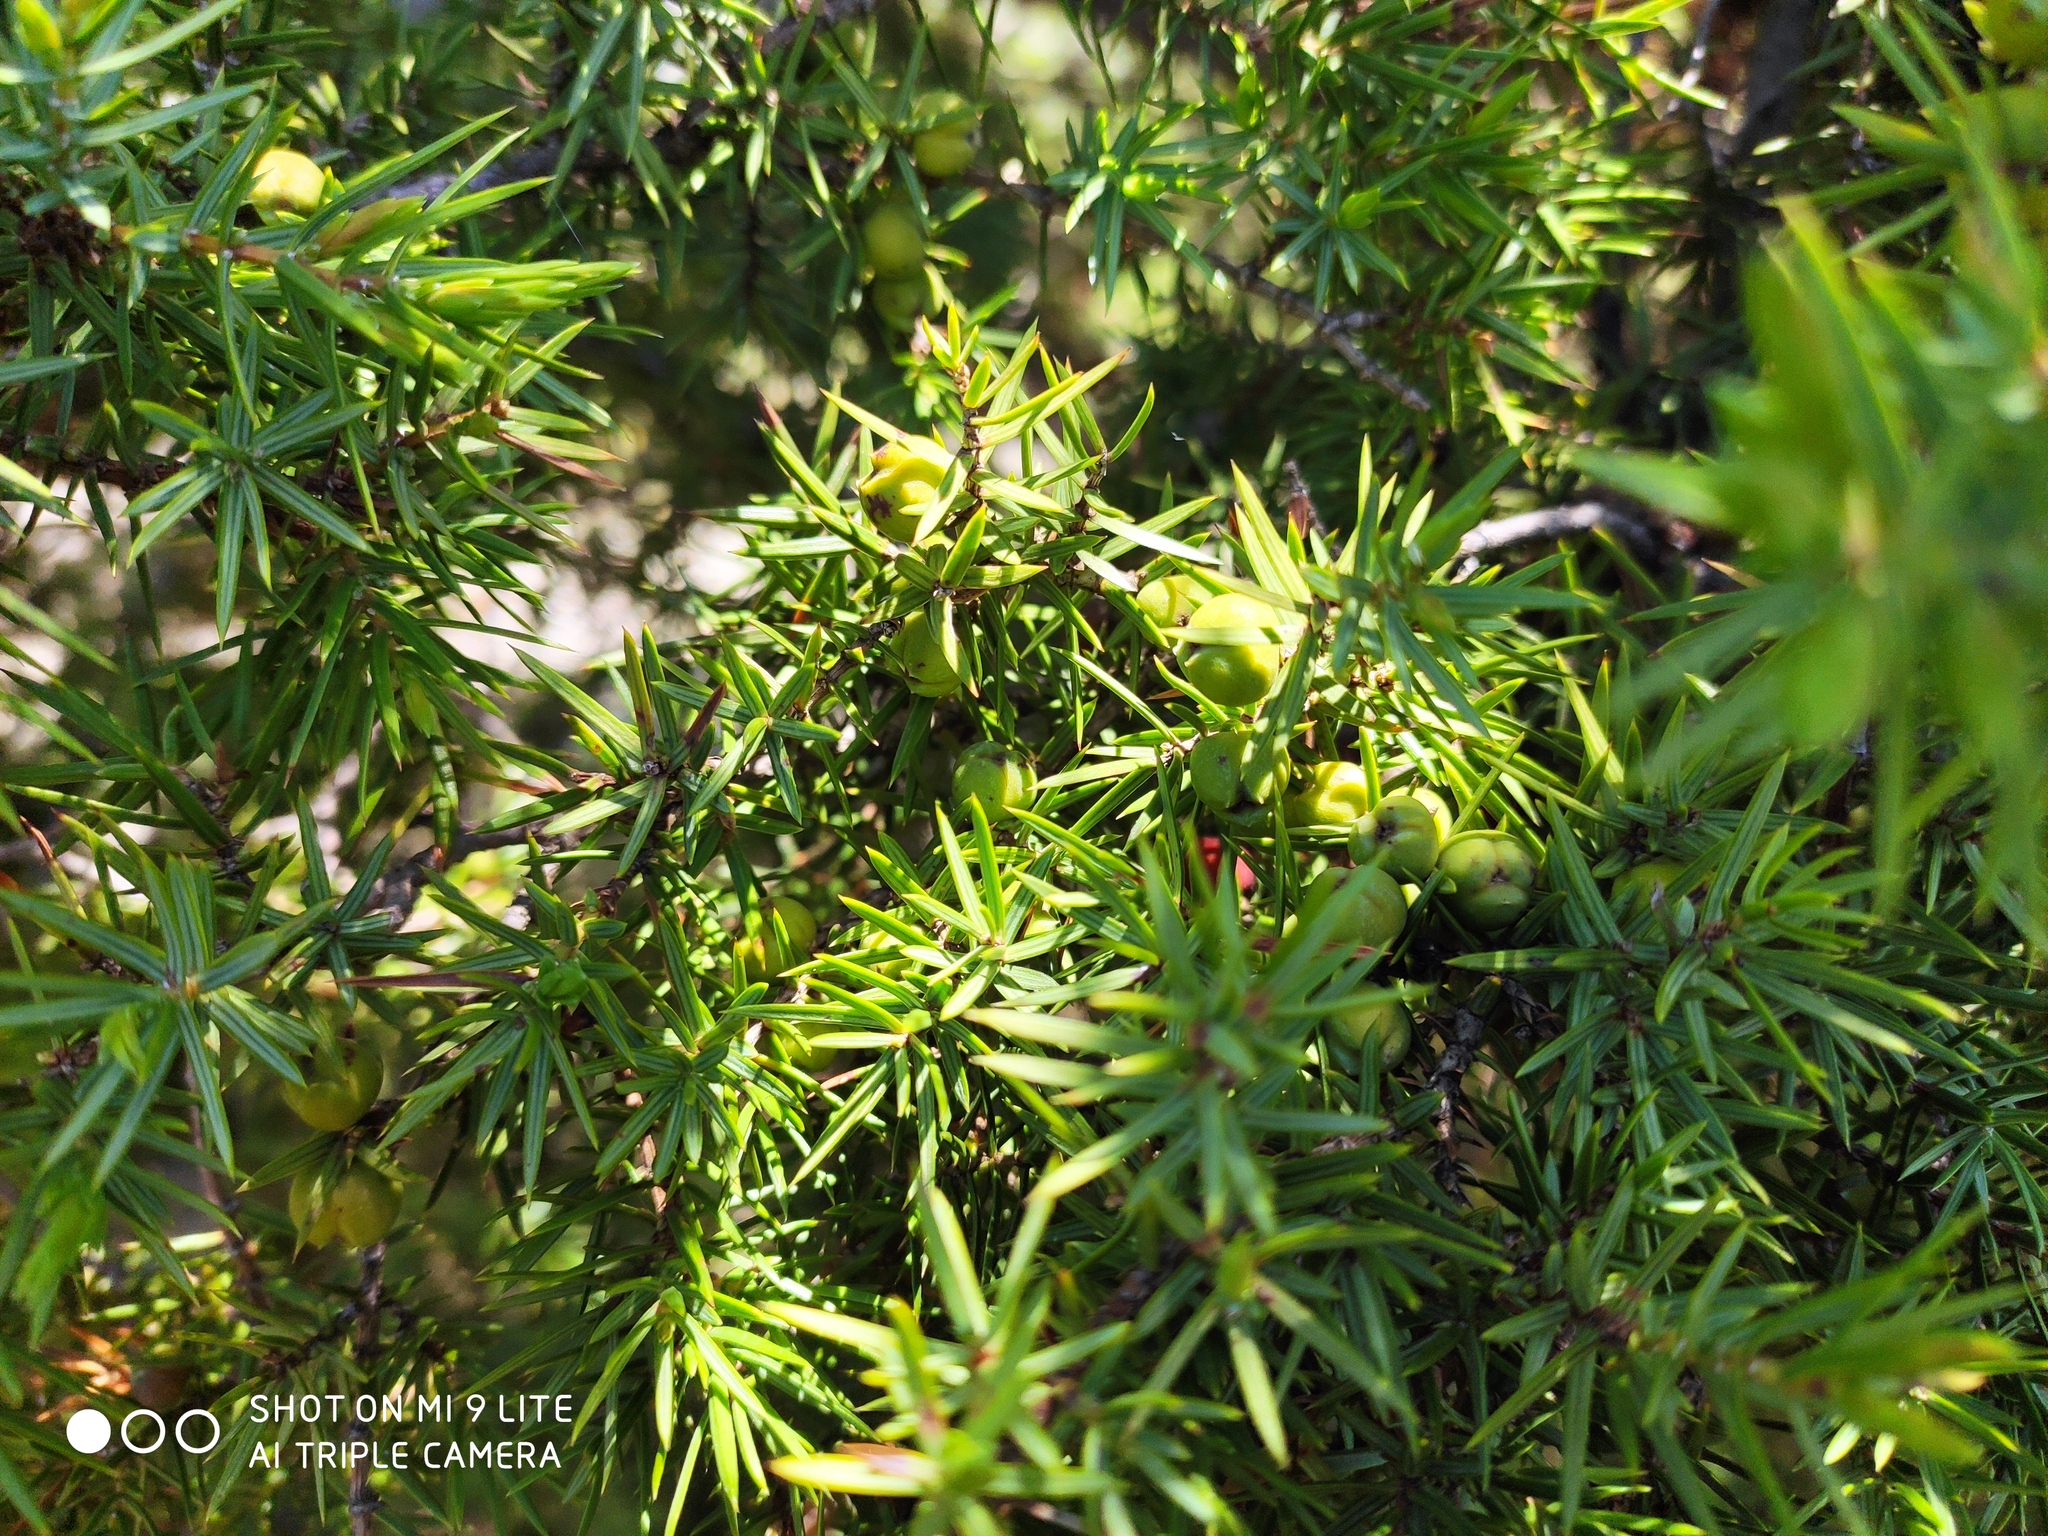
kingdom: Plantae
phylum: Tracheophyta
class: Pinopsida
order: Pinales
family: Cupressaceae
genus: Juniperus
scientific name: Juniperus oxycedrus
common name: Prickly juniper
